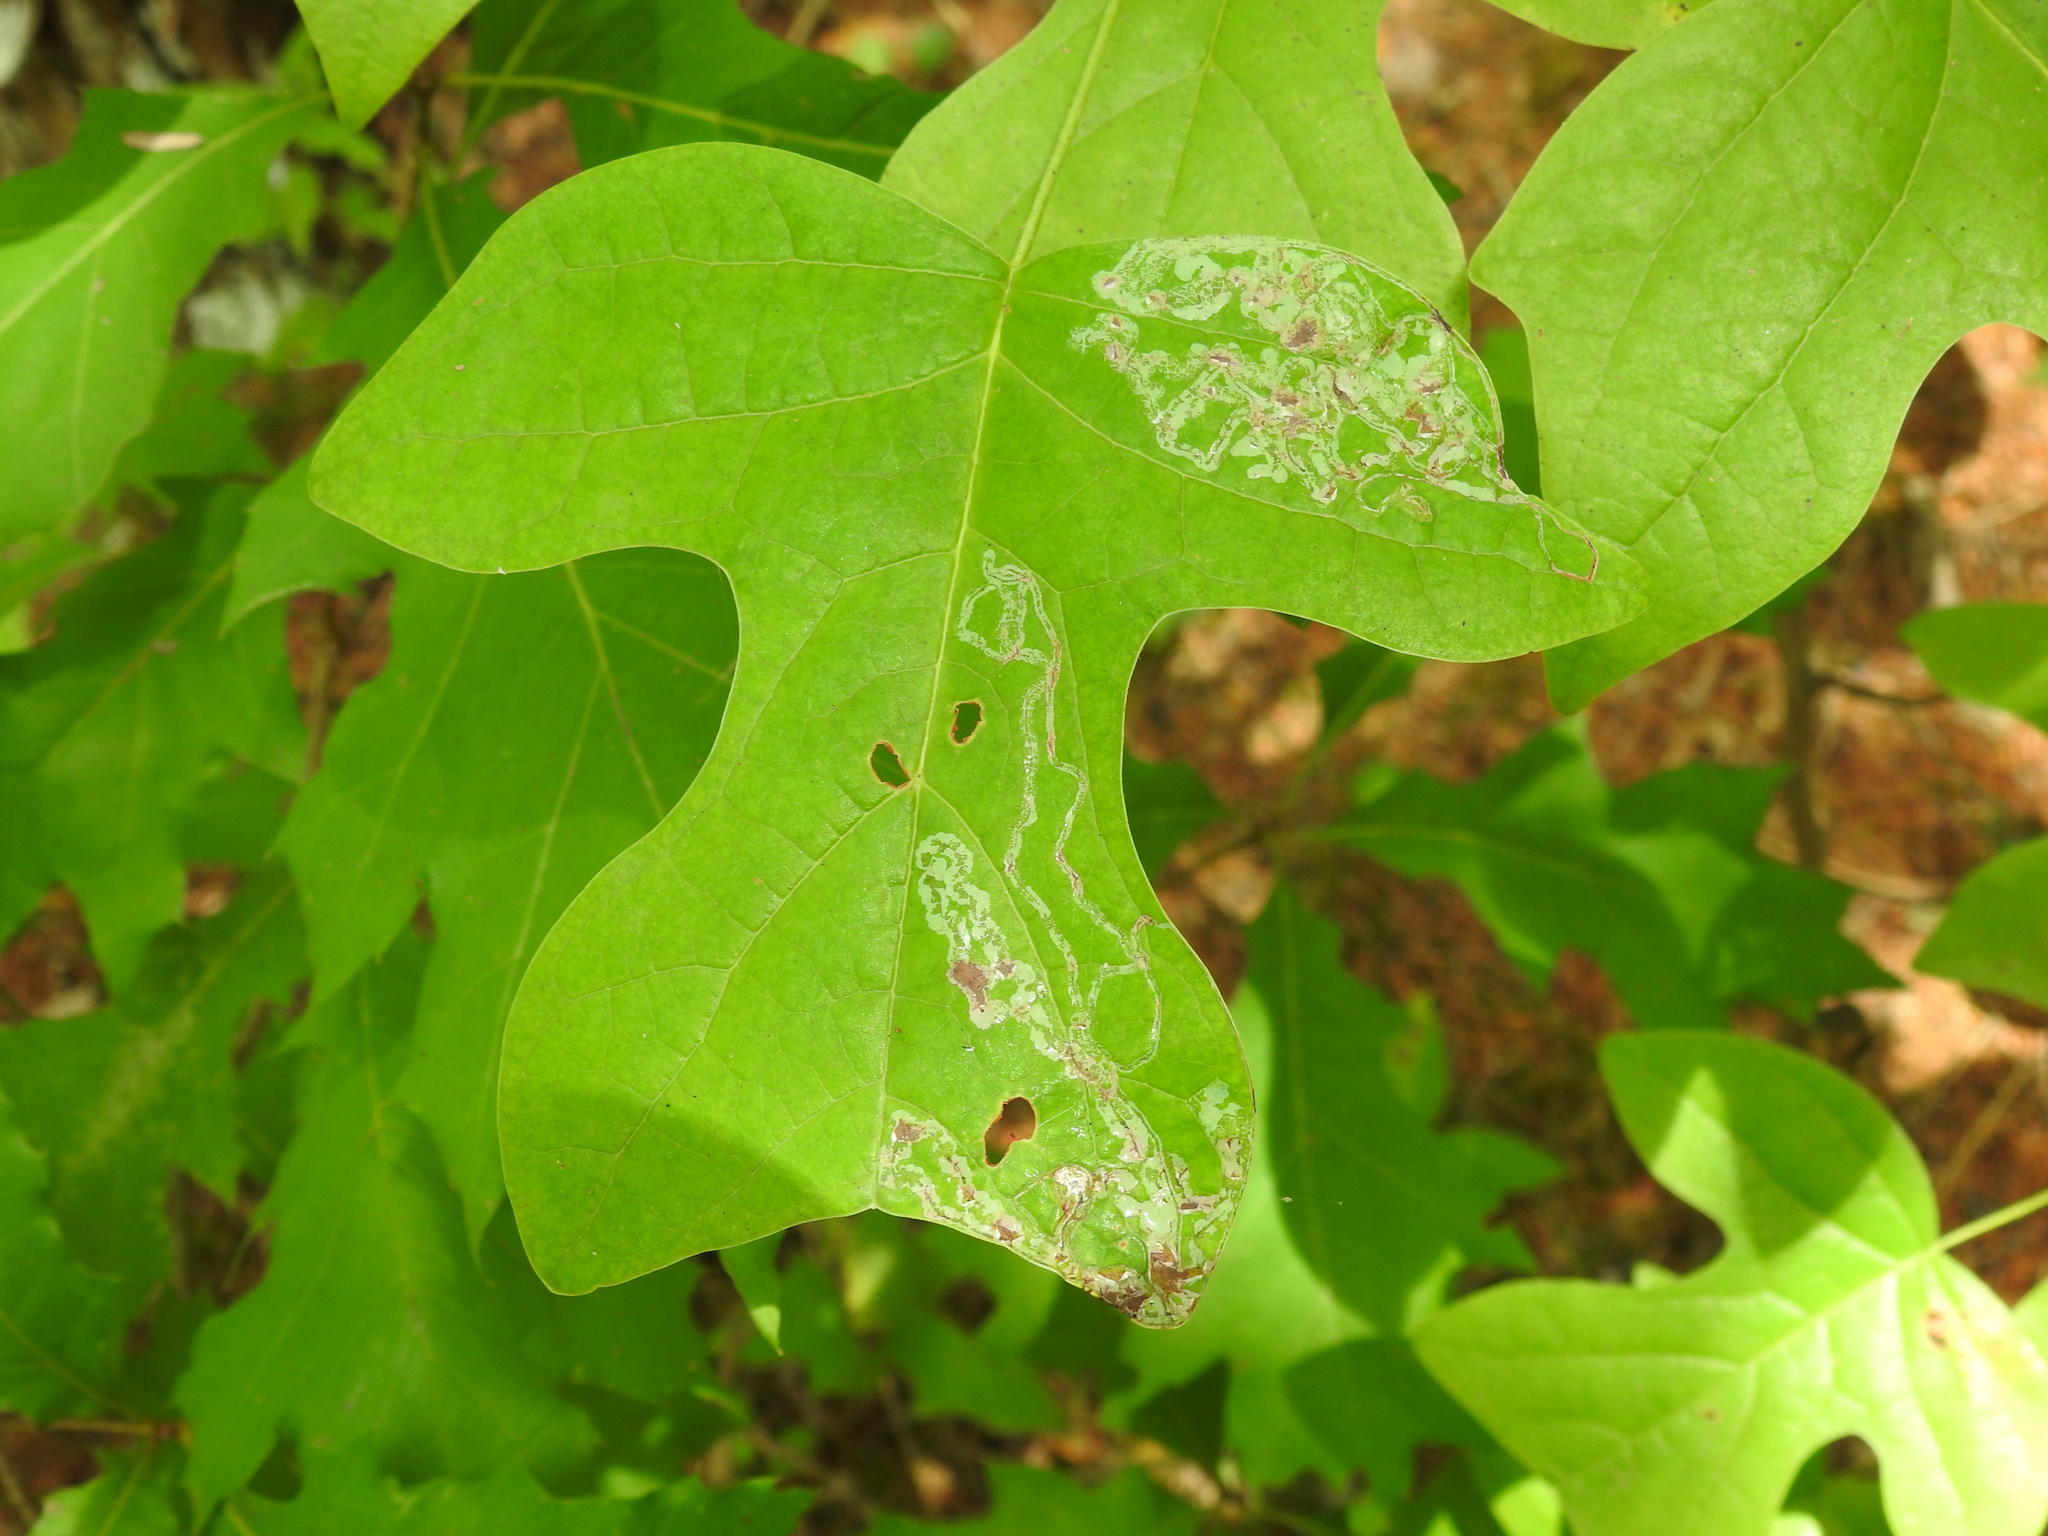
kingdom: Animalia
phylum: Arthropoda
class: Insecta
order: Lepidoptera
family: Gracillariidae
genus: Phyllocnistis
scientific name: Phyllocnistis liriodendronella
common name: Tulip tree leaf miner
